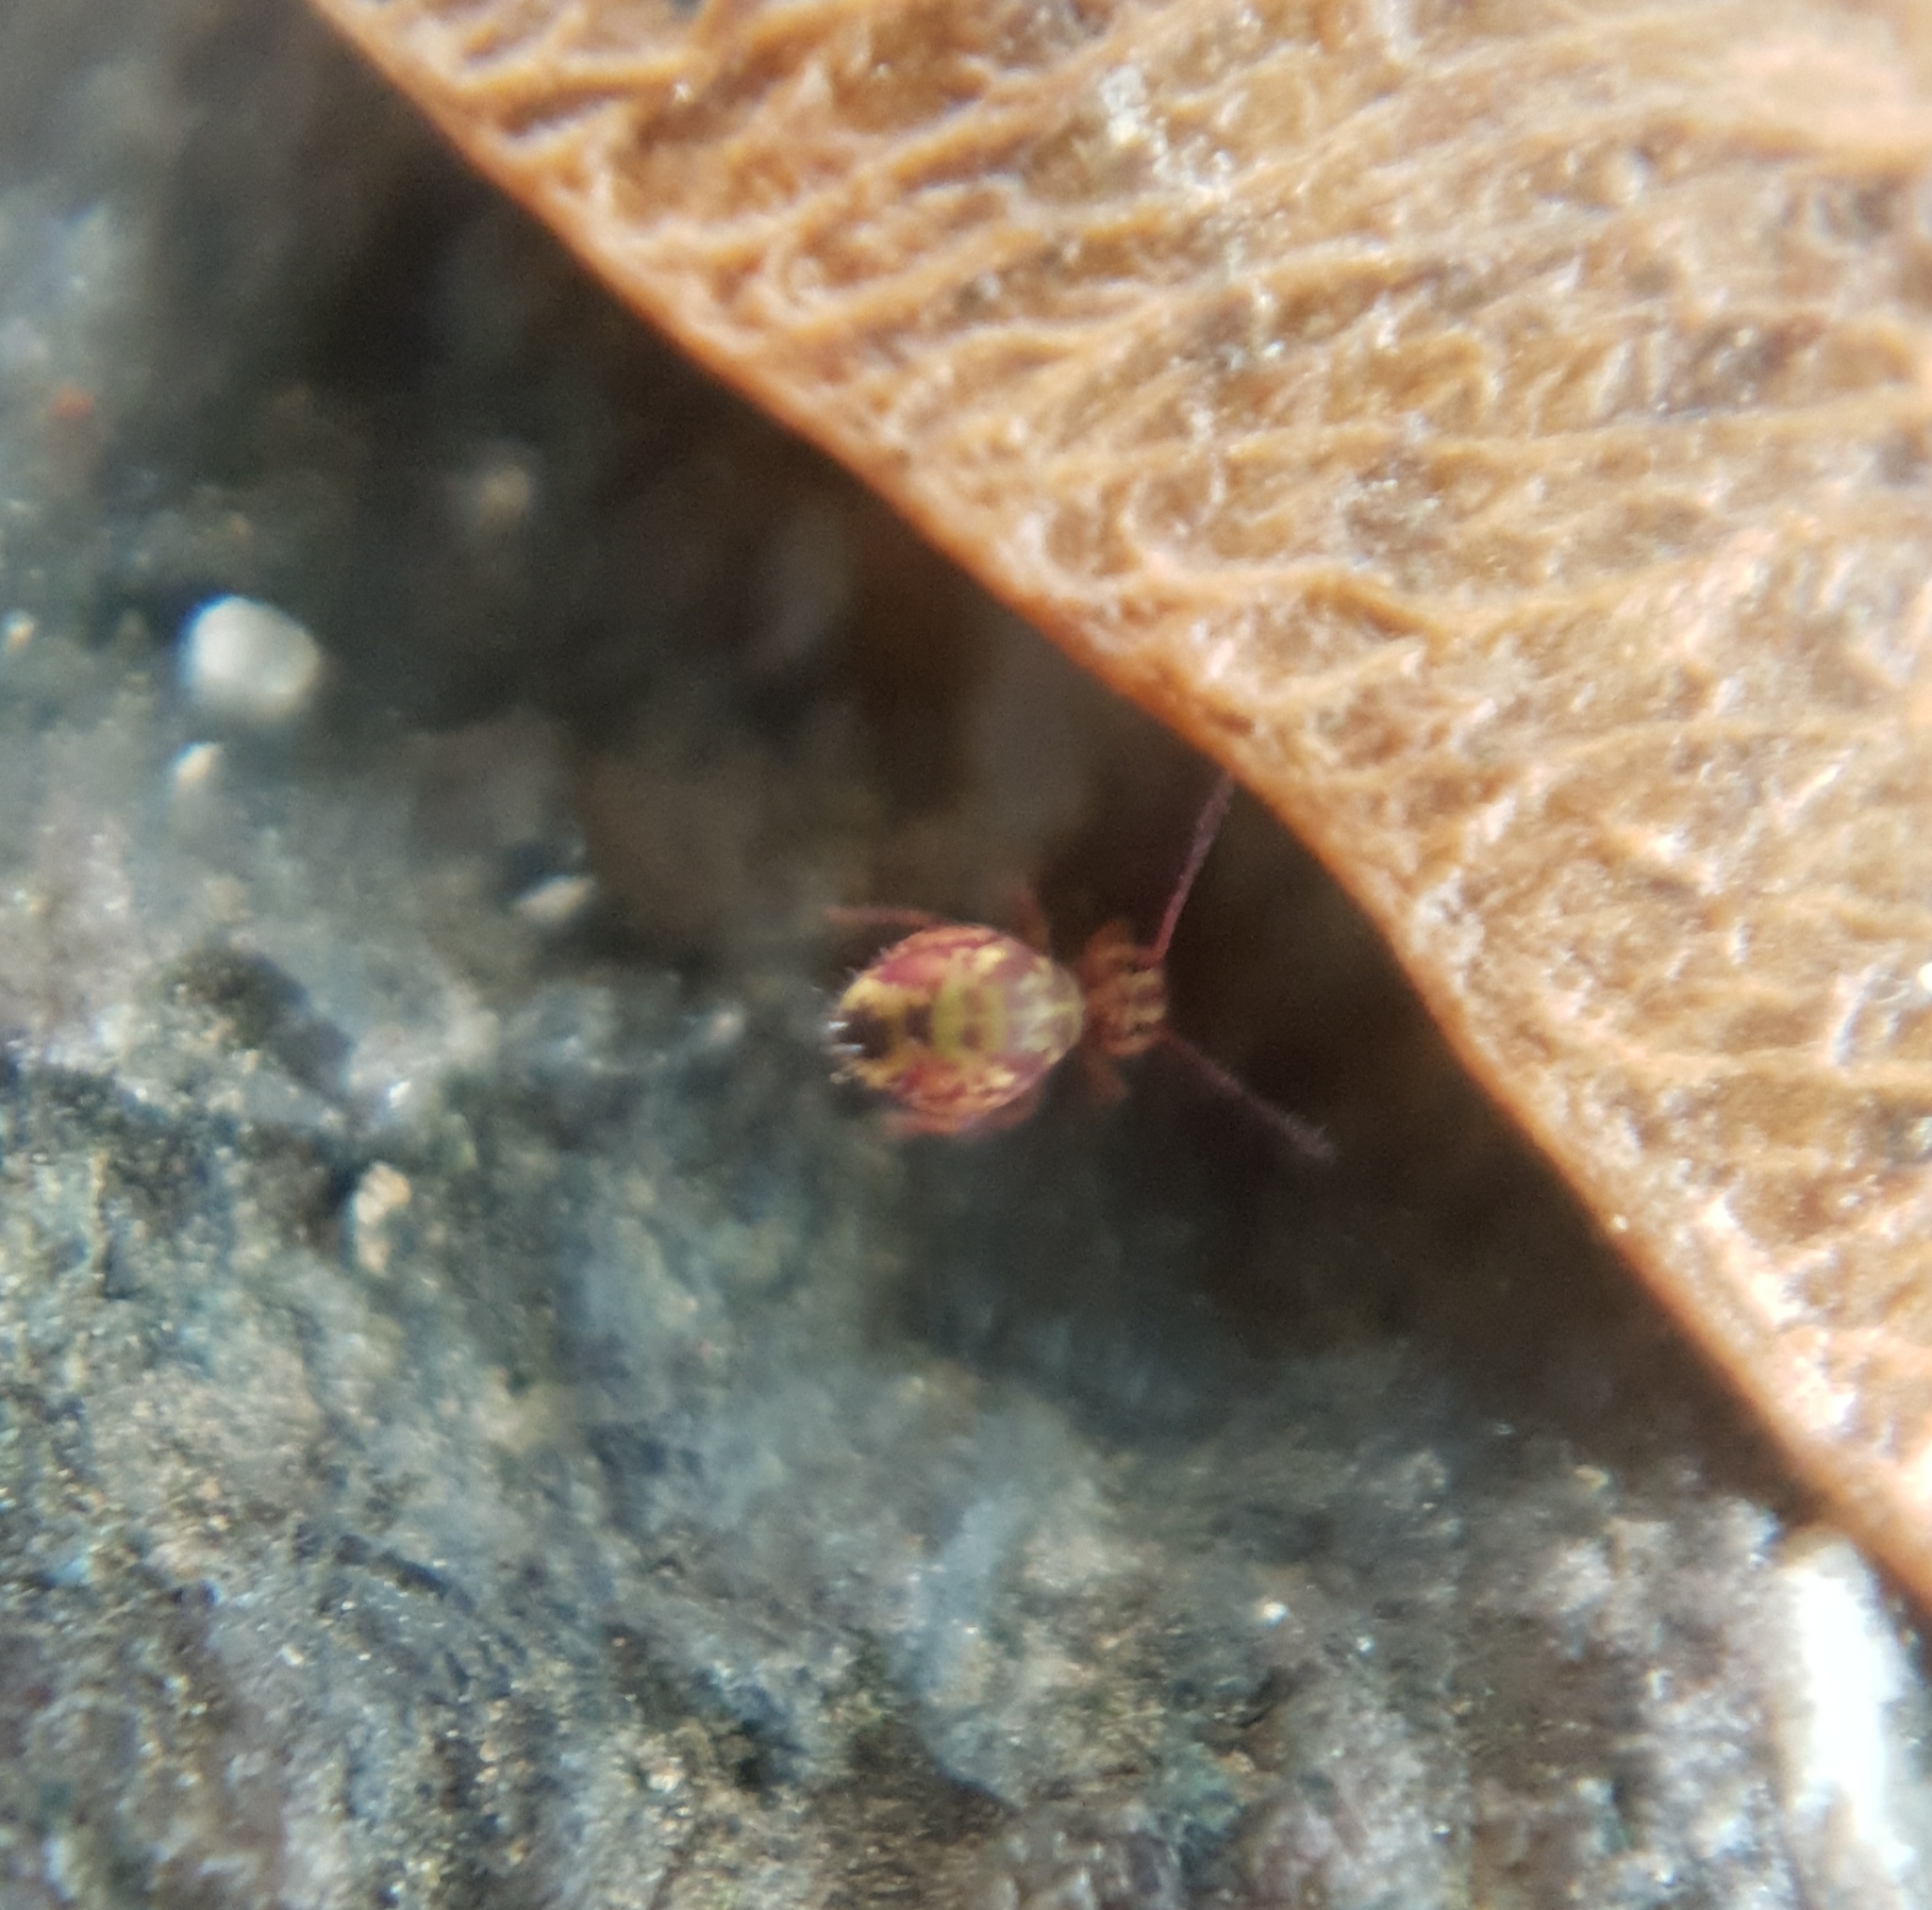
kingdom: Animalia
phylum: Arthropoda
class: Collembola
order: Symphypleona
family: Dicyrtomidae
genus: Dicyrtomina
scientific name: Dicyrtomina ornata
